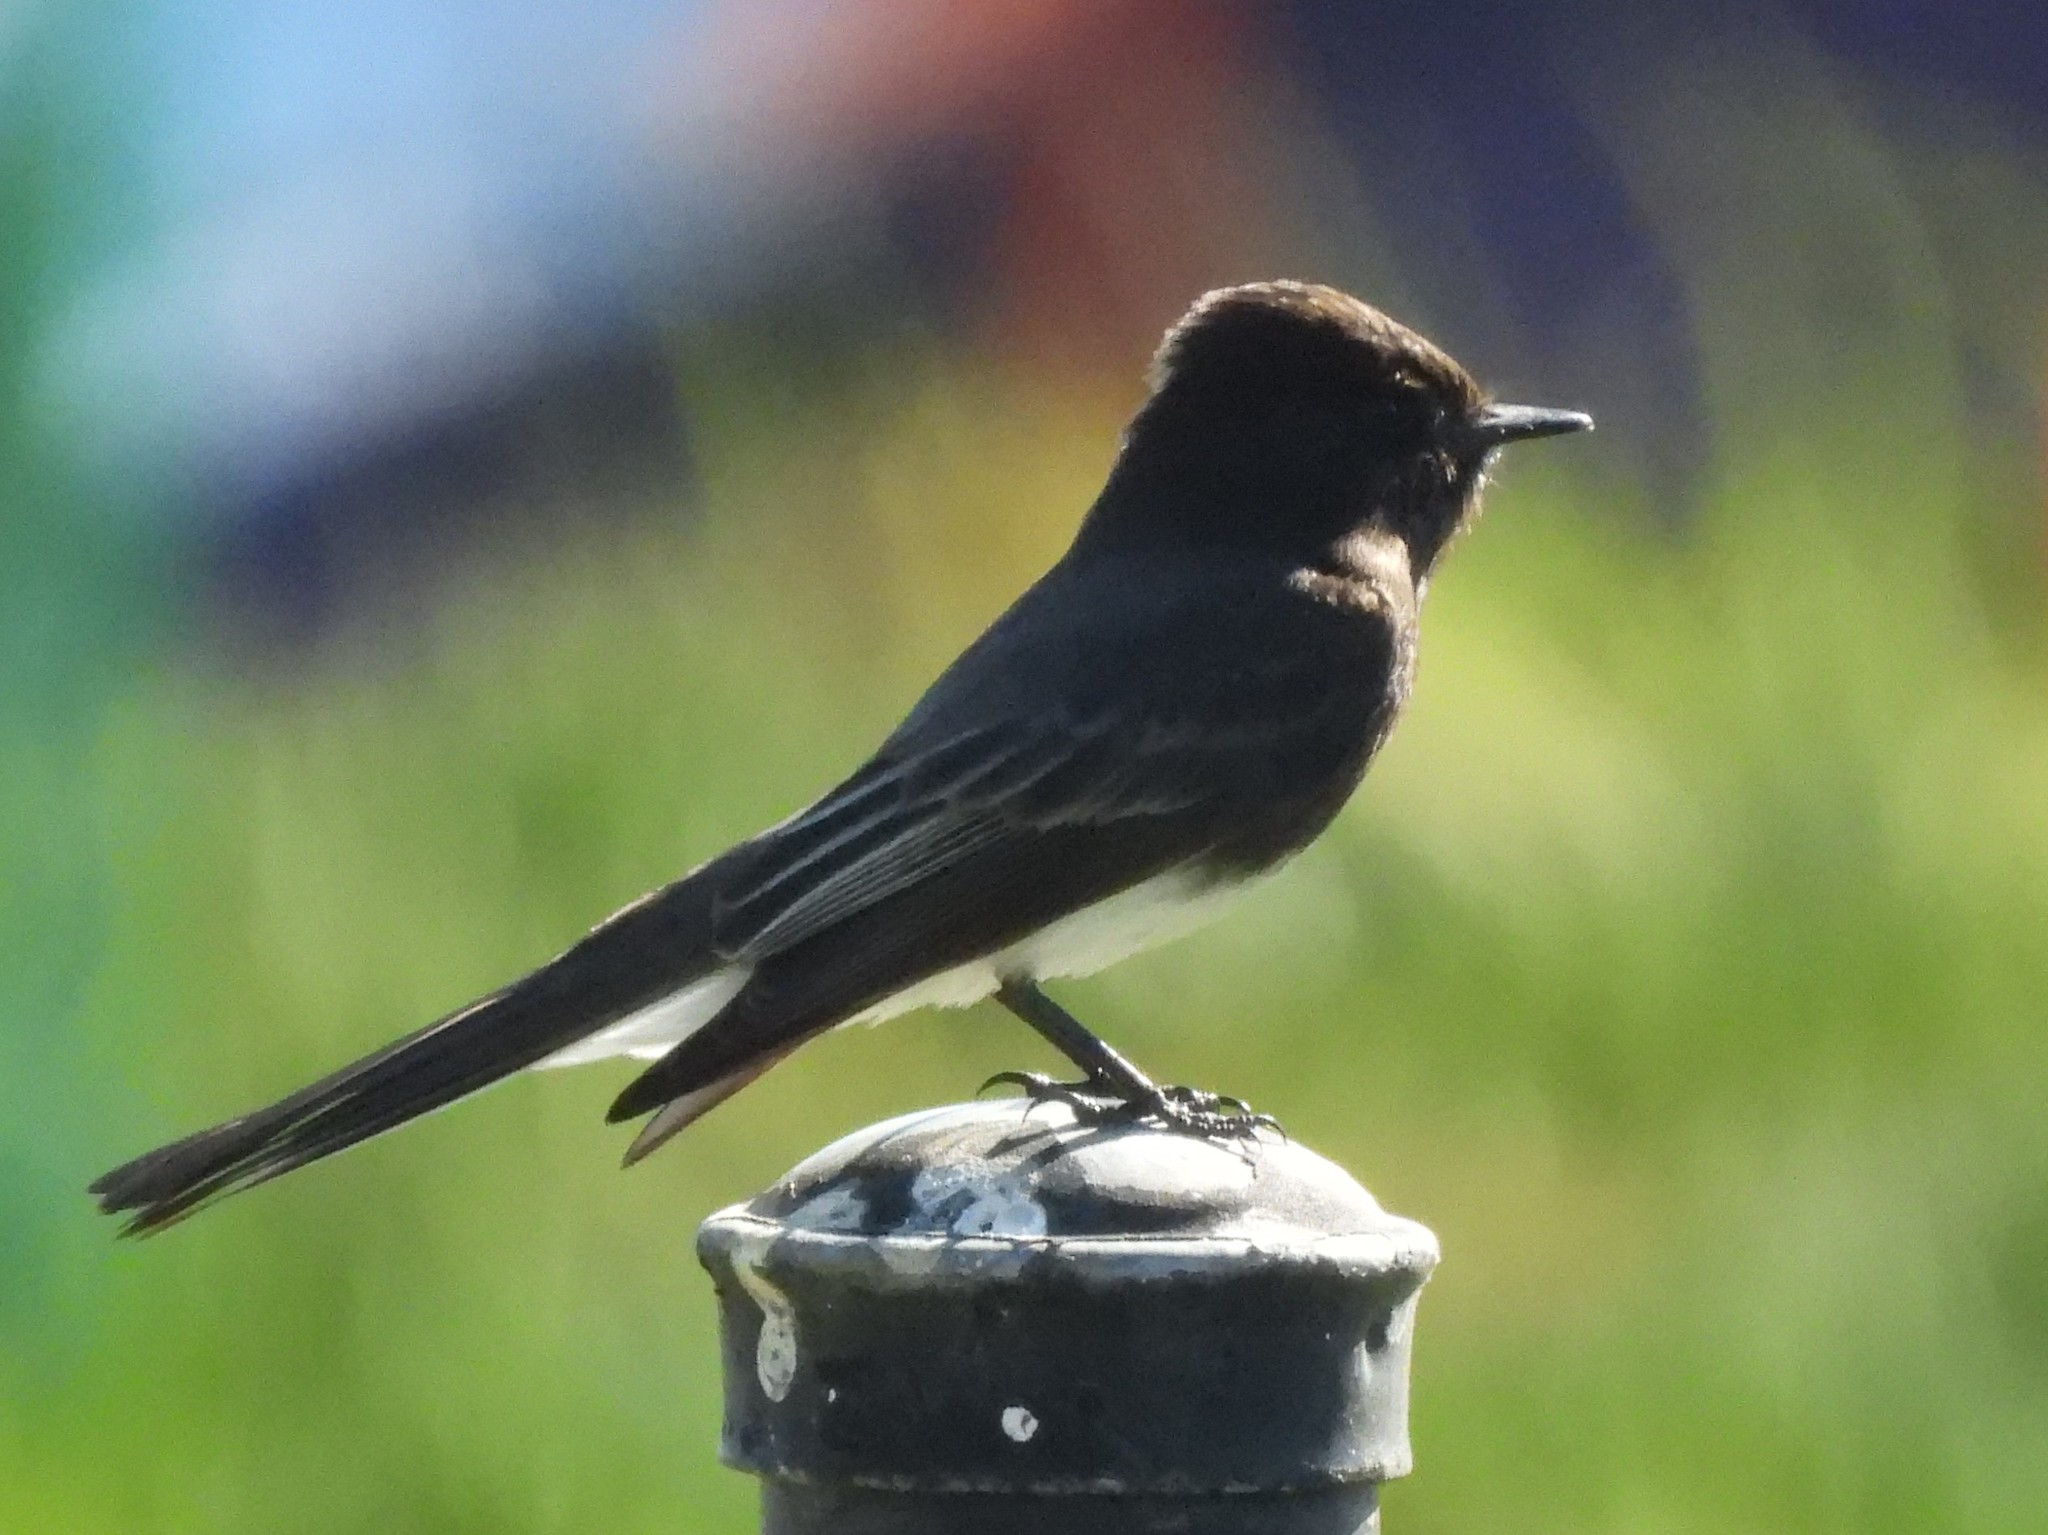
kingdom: Animalia
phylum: Chordata
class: Aves
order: Passeriformes
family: Tyrannidae
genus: Sayornis
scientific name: Sayornis nigricans
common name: Black phoebe
